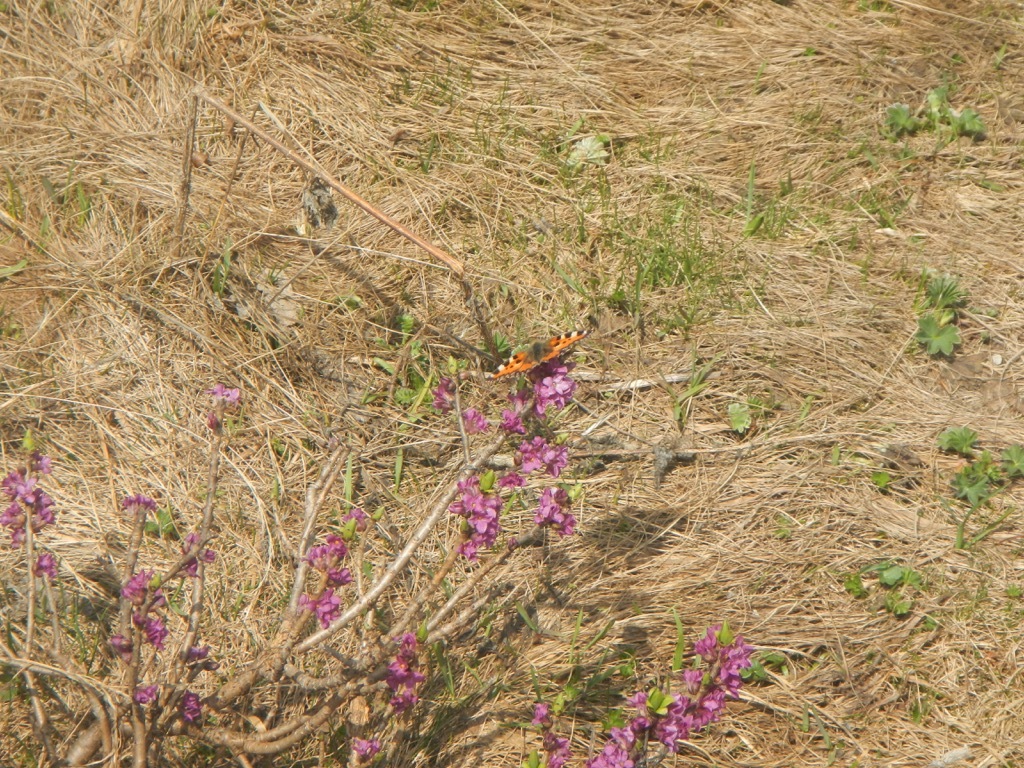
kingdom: Plantae
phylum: Tracheophyta
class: Magnoliopsida
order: Malvales
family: Thymelaeaceae
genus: Daphne
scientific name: Daphne mezereum
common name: Mezereon
